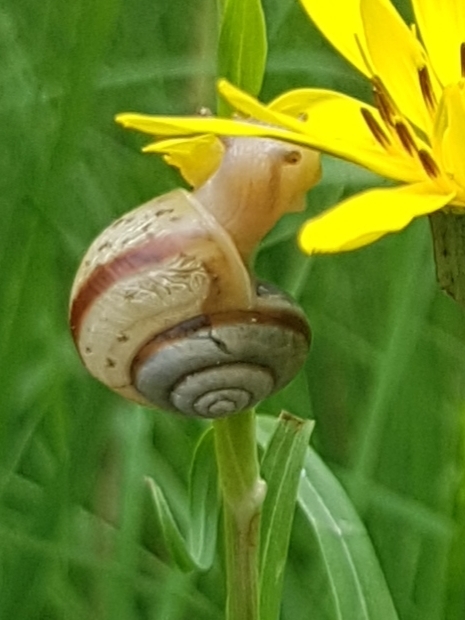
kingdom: Animalia
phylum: Mollusca
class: Gastropoda
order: Stylommatophora
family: Camaenidae
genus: Fruticicola
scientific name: Fruticicola fruticum
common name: Bush snail
